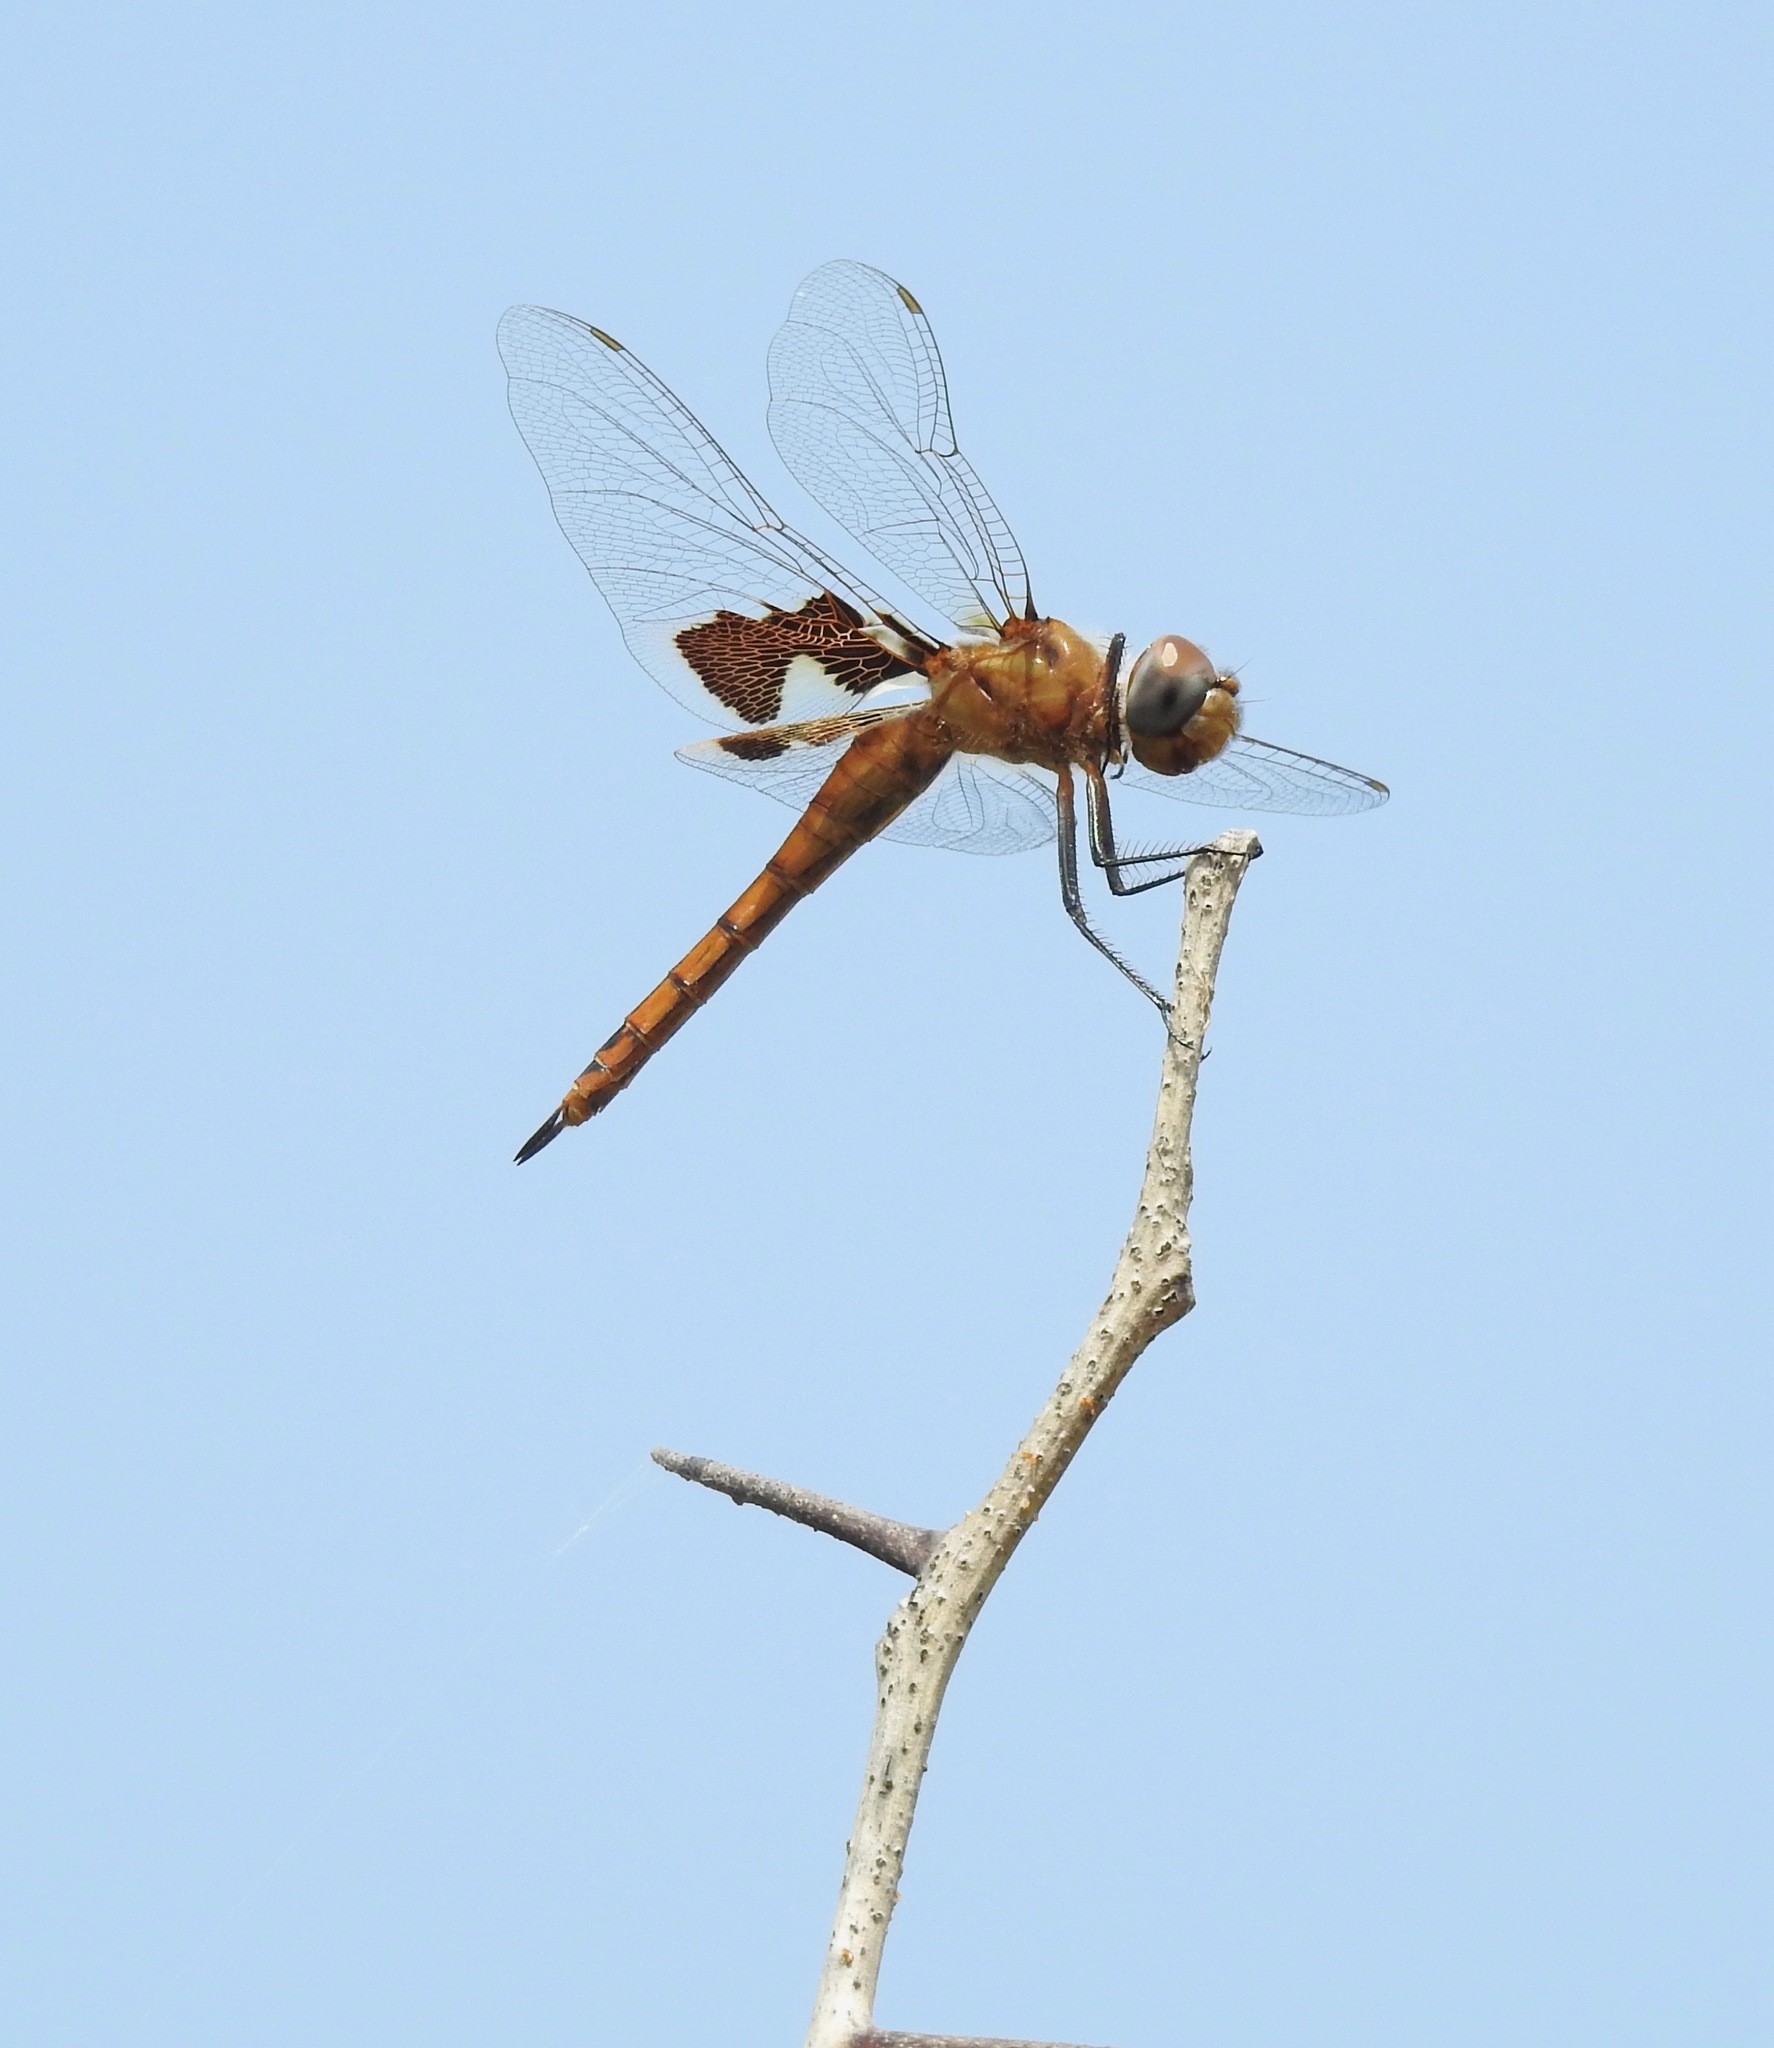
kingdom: Animalia
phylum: Arthropoda
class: Insecta
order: Odonata
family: Libellulidae
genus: Tramea
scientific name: Tramea onusta
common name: Red saddlebags
